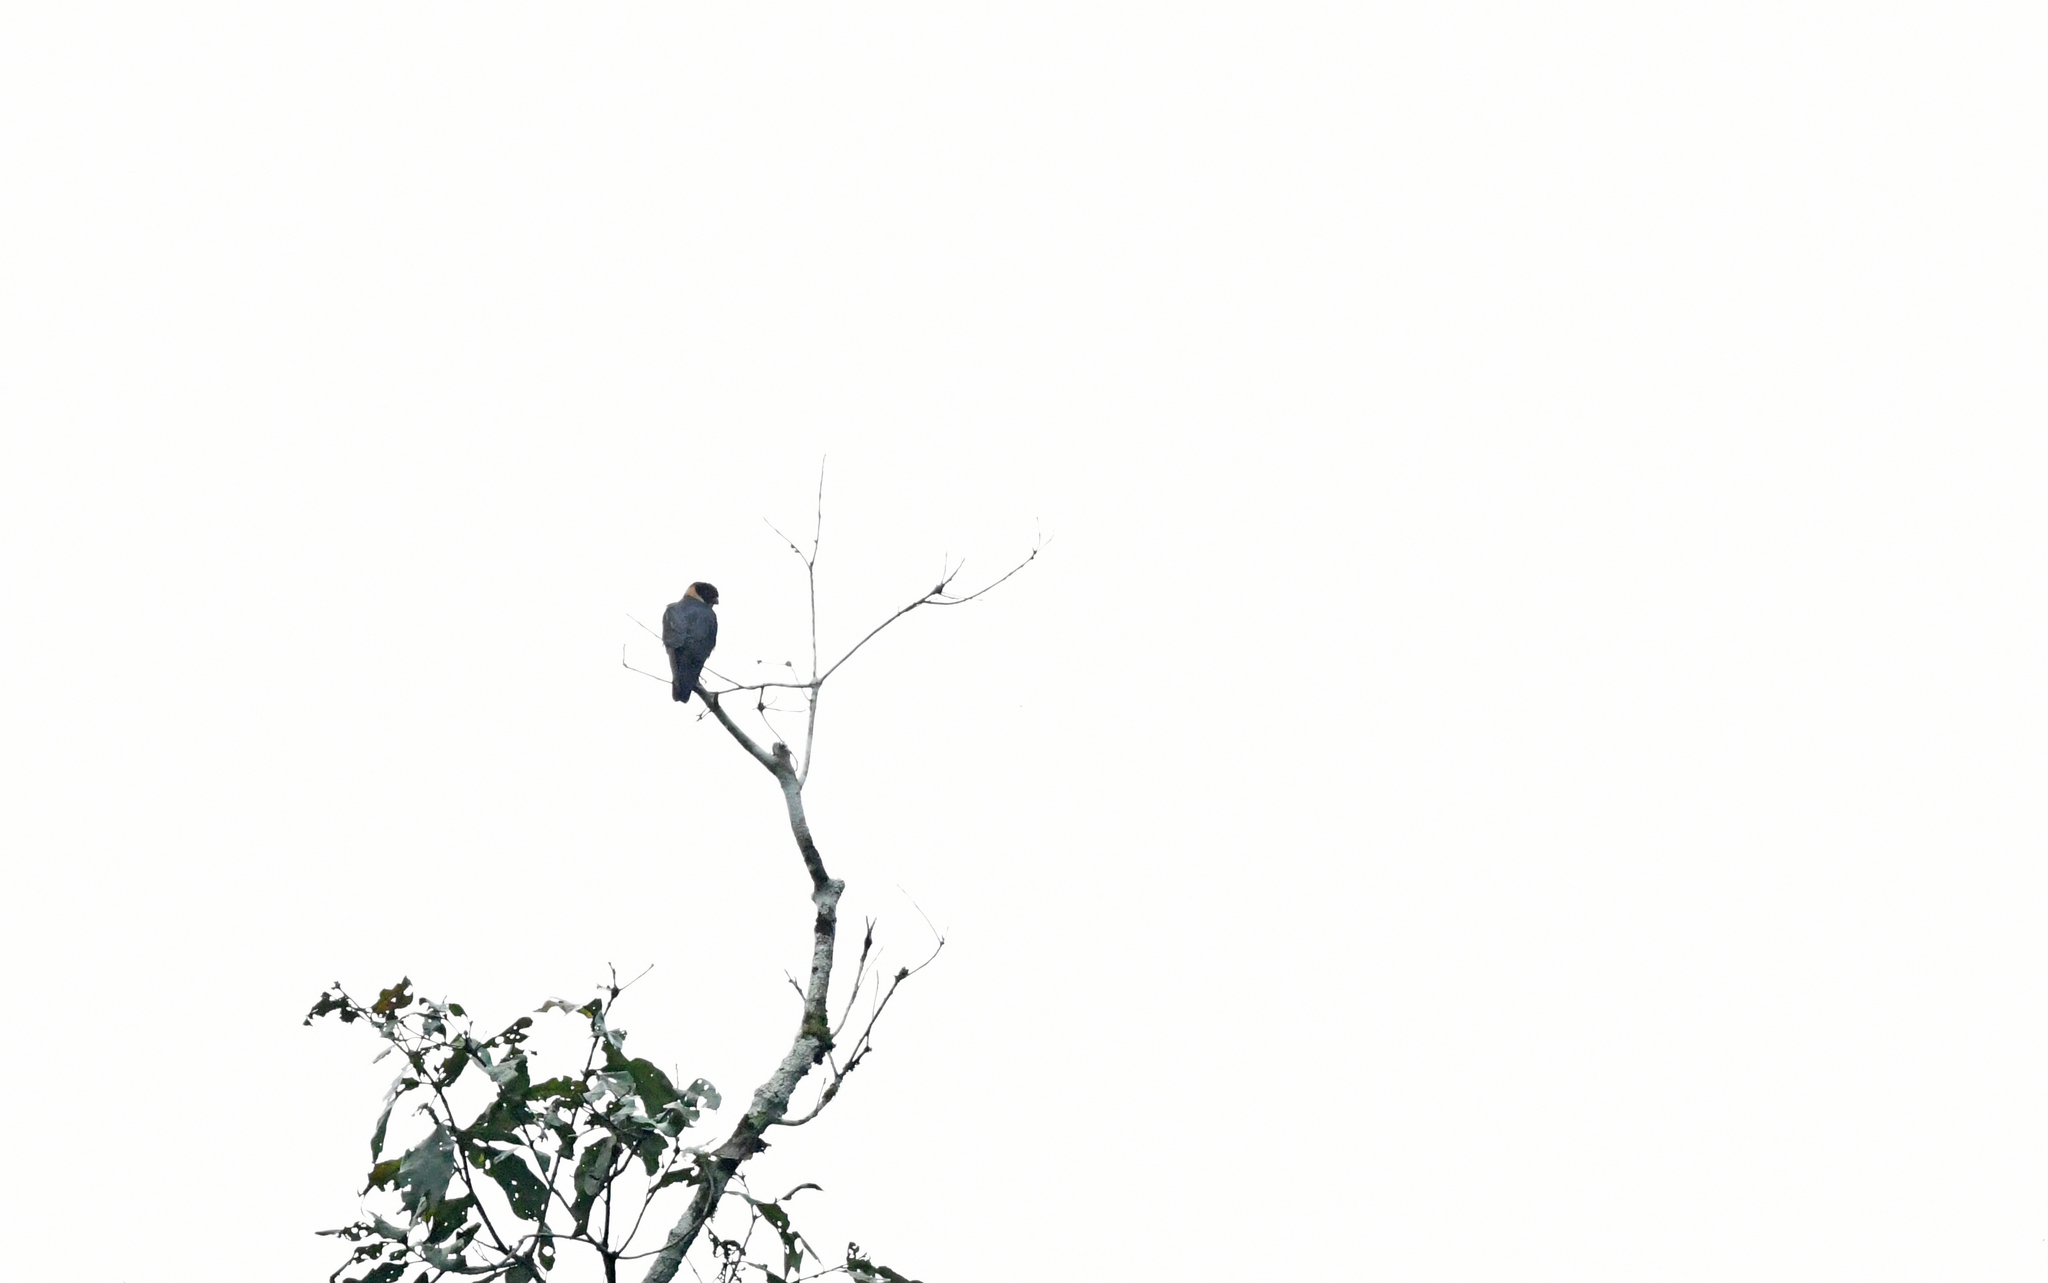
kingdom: Animalia
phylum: Chordata
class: Aves
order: Falconiformes
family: Falconidae
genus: Falco
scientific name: Falco rufigularis
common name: Bat falcon
